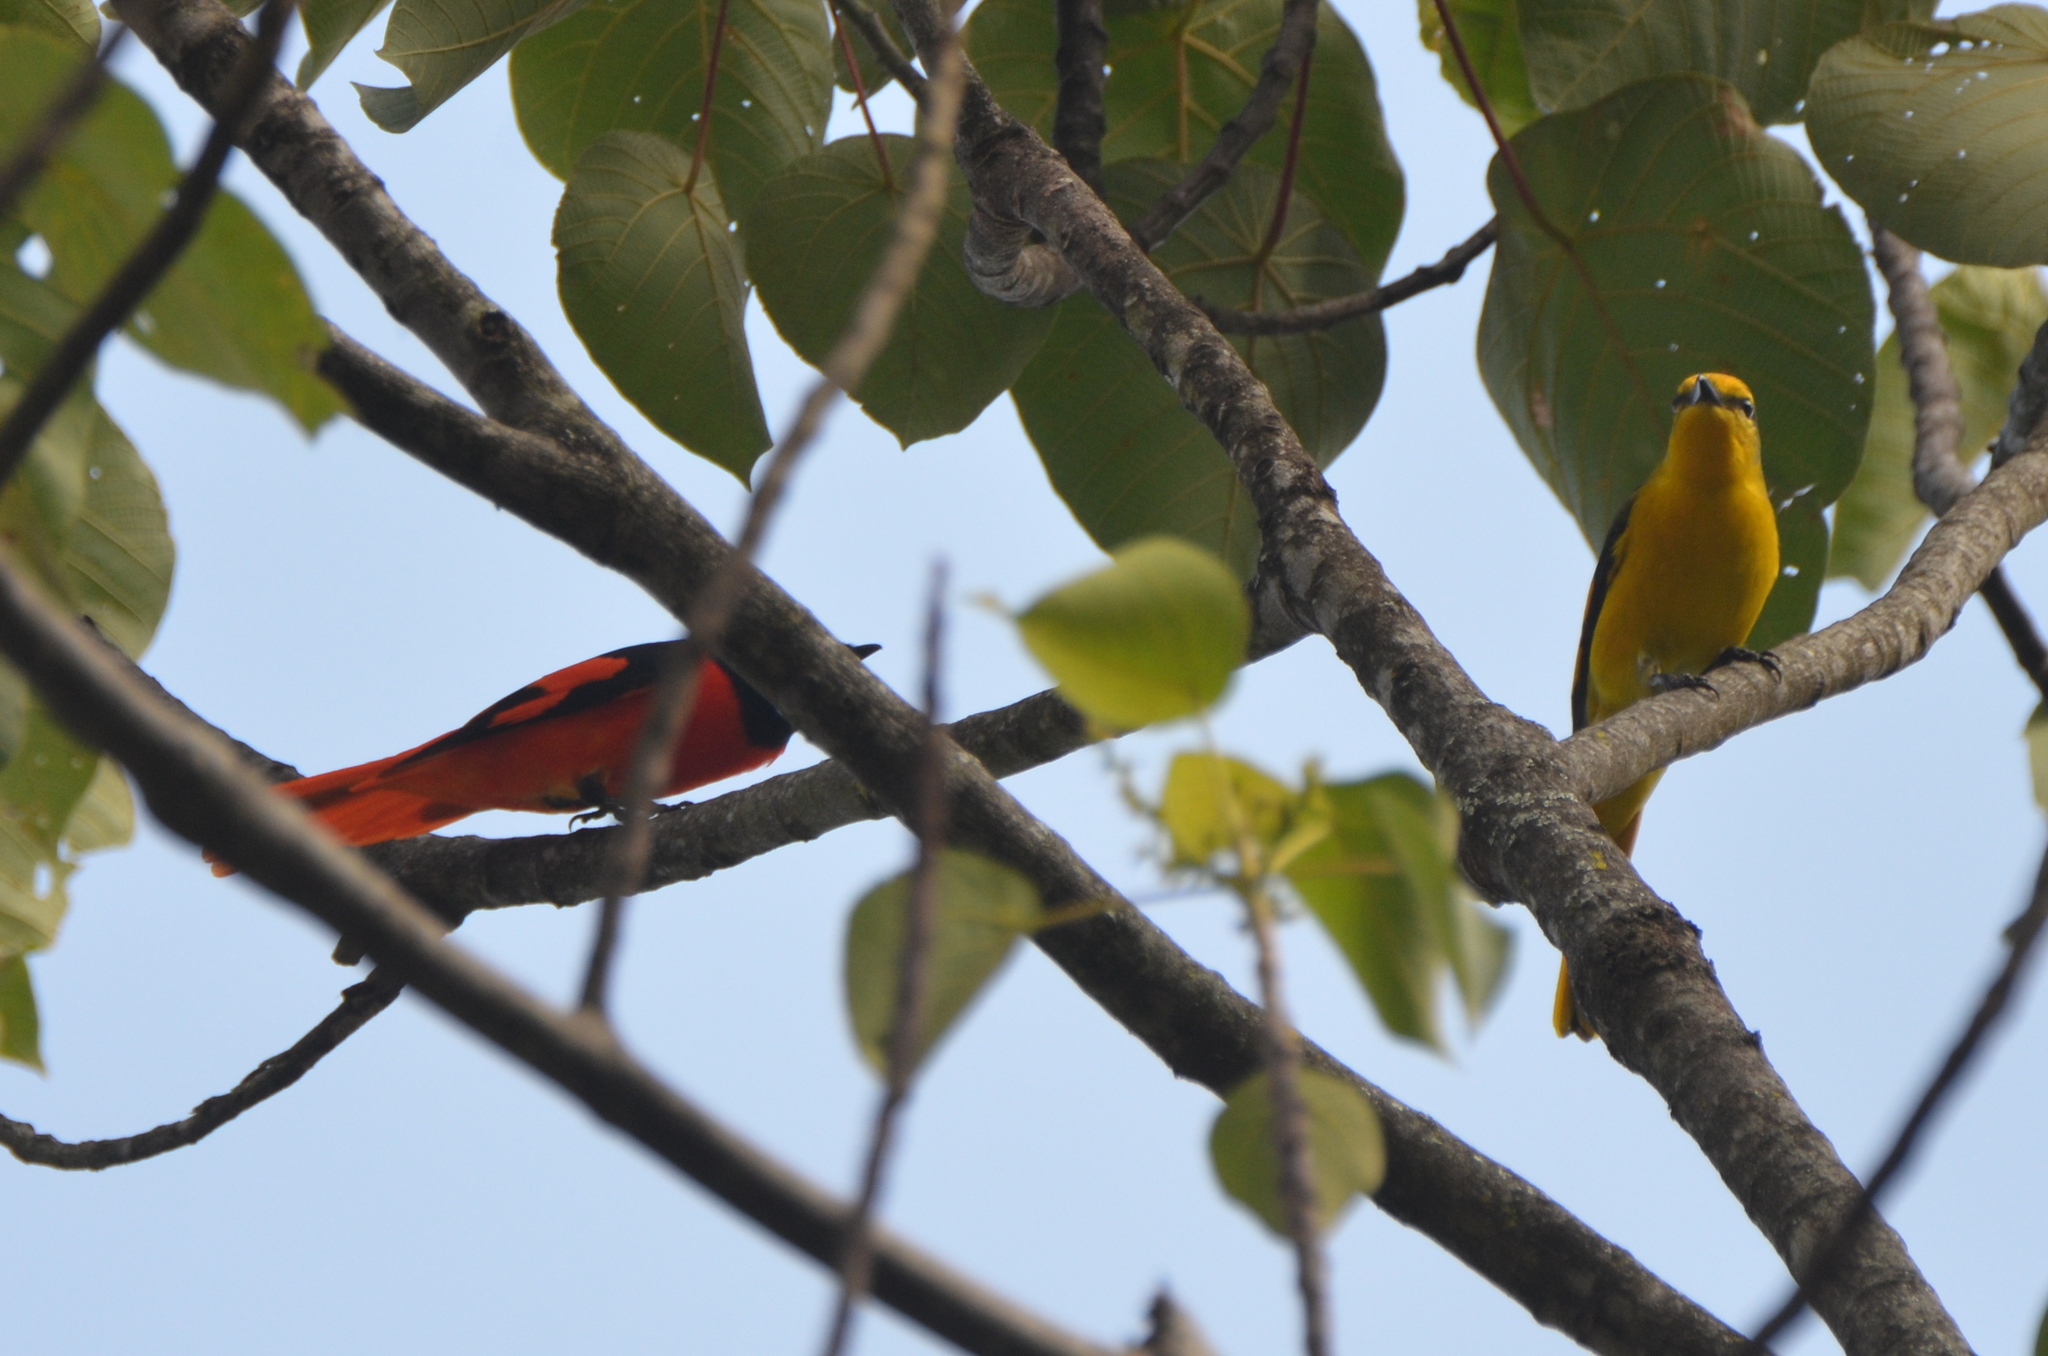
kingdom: Animalia
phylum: Chordata
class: Aves
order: Passeriformes
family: Campephagidae
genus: Pericrocotus
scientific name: Pericrocotus speciosus
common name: Scarlet minivet
